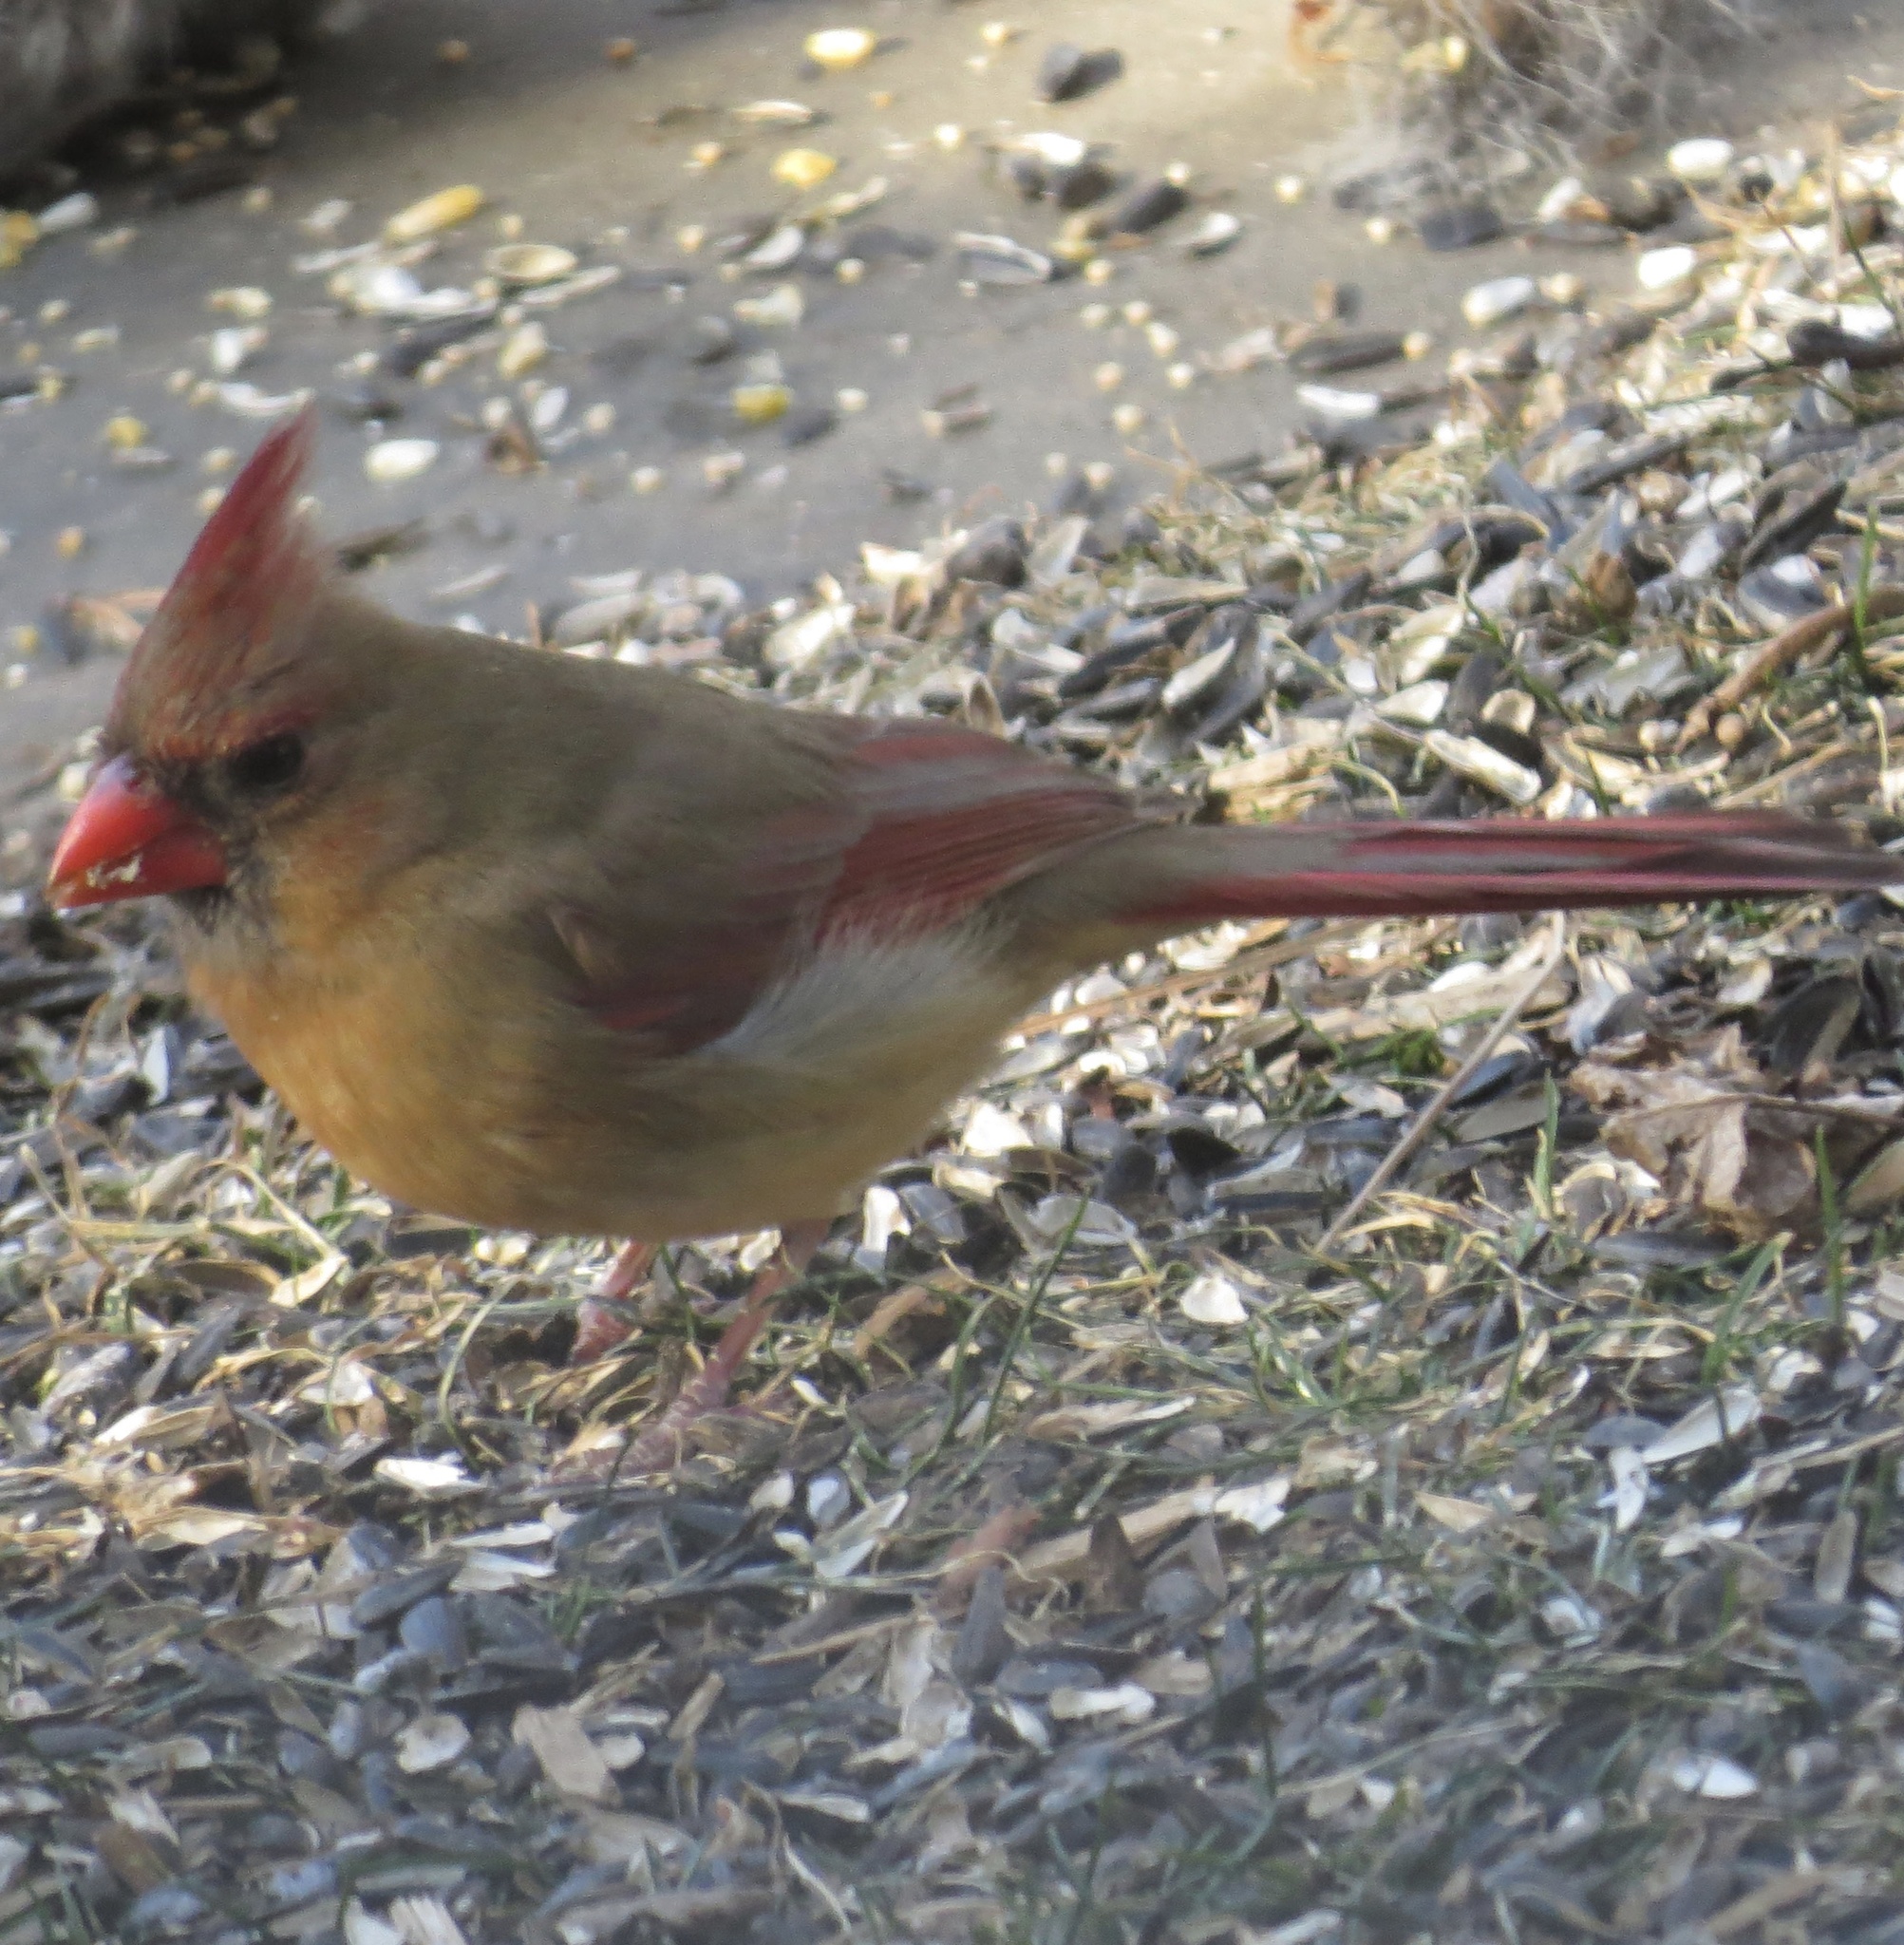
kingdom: Animalia
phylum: Chordata
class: Aves
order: Passeriformes
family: Cardinalidae
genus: Cardinalis
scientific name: Cardinalis cardinalis
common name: Northern cardinal
